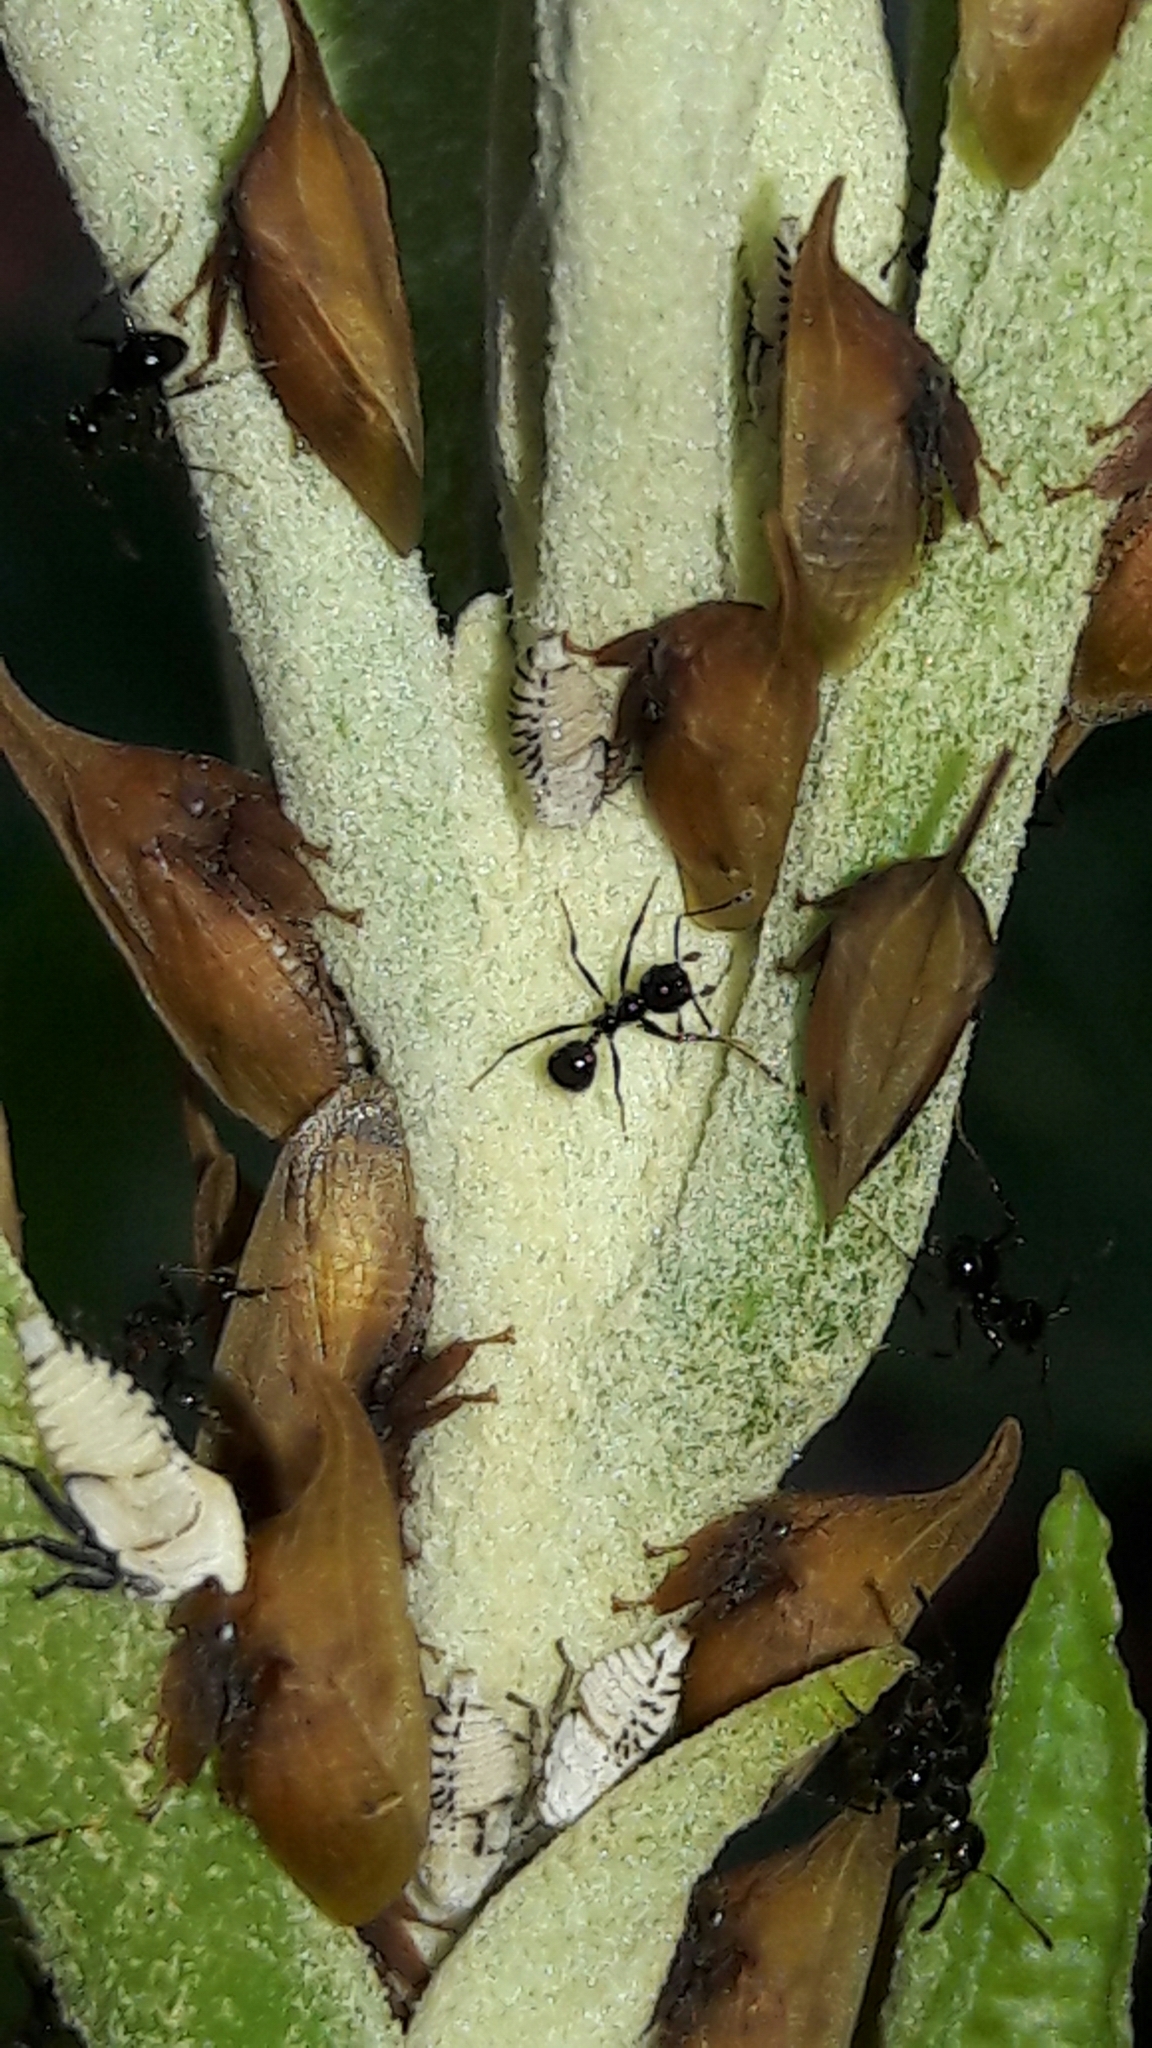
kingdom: Animalia
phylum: Arthropoda
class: Insecta
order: Hemiptera
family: Membracidae
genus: Enchenopa
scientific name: Enchenopa squamigera
